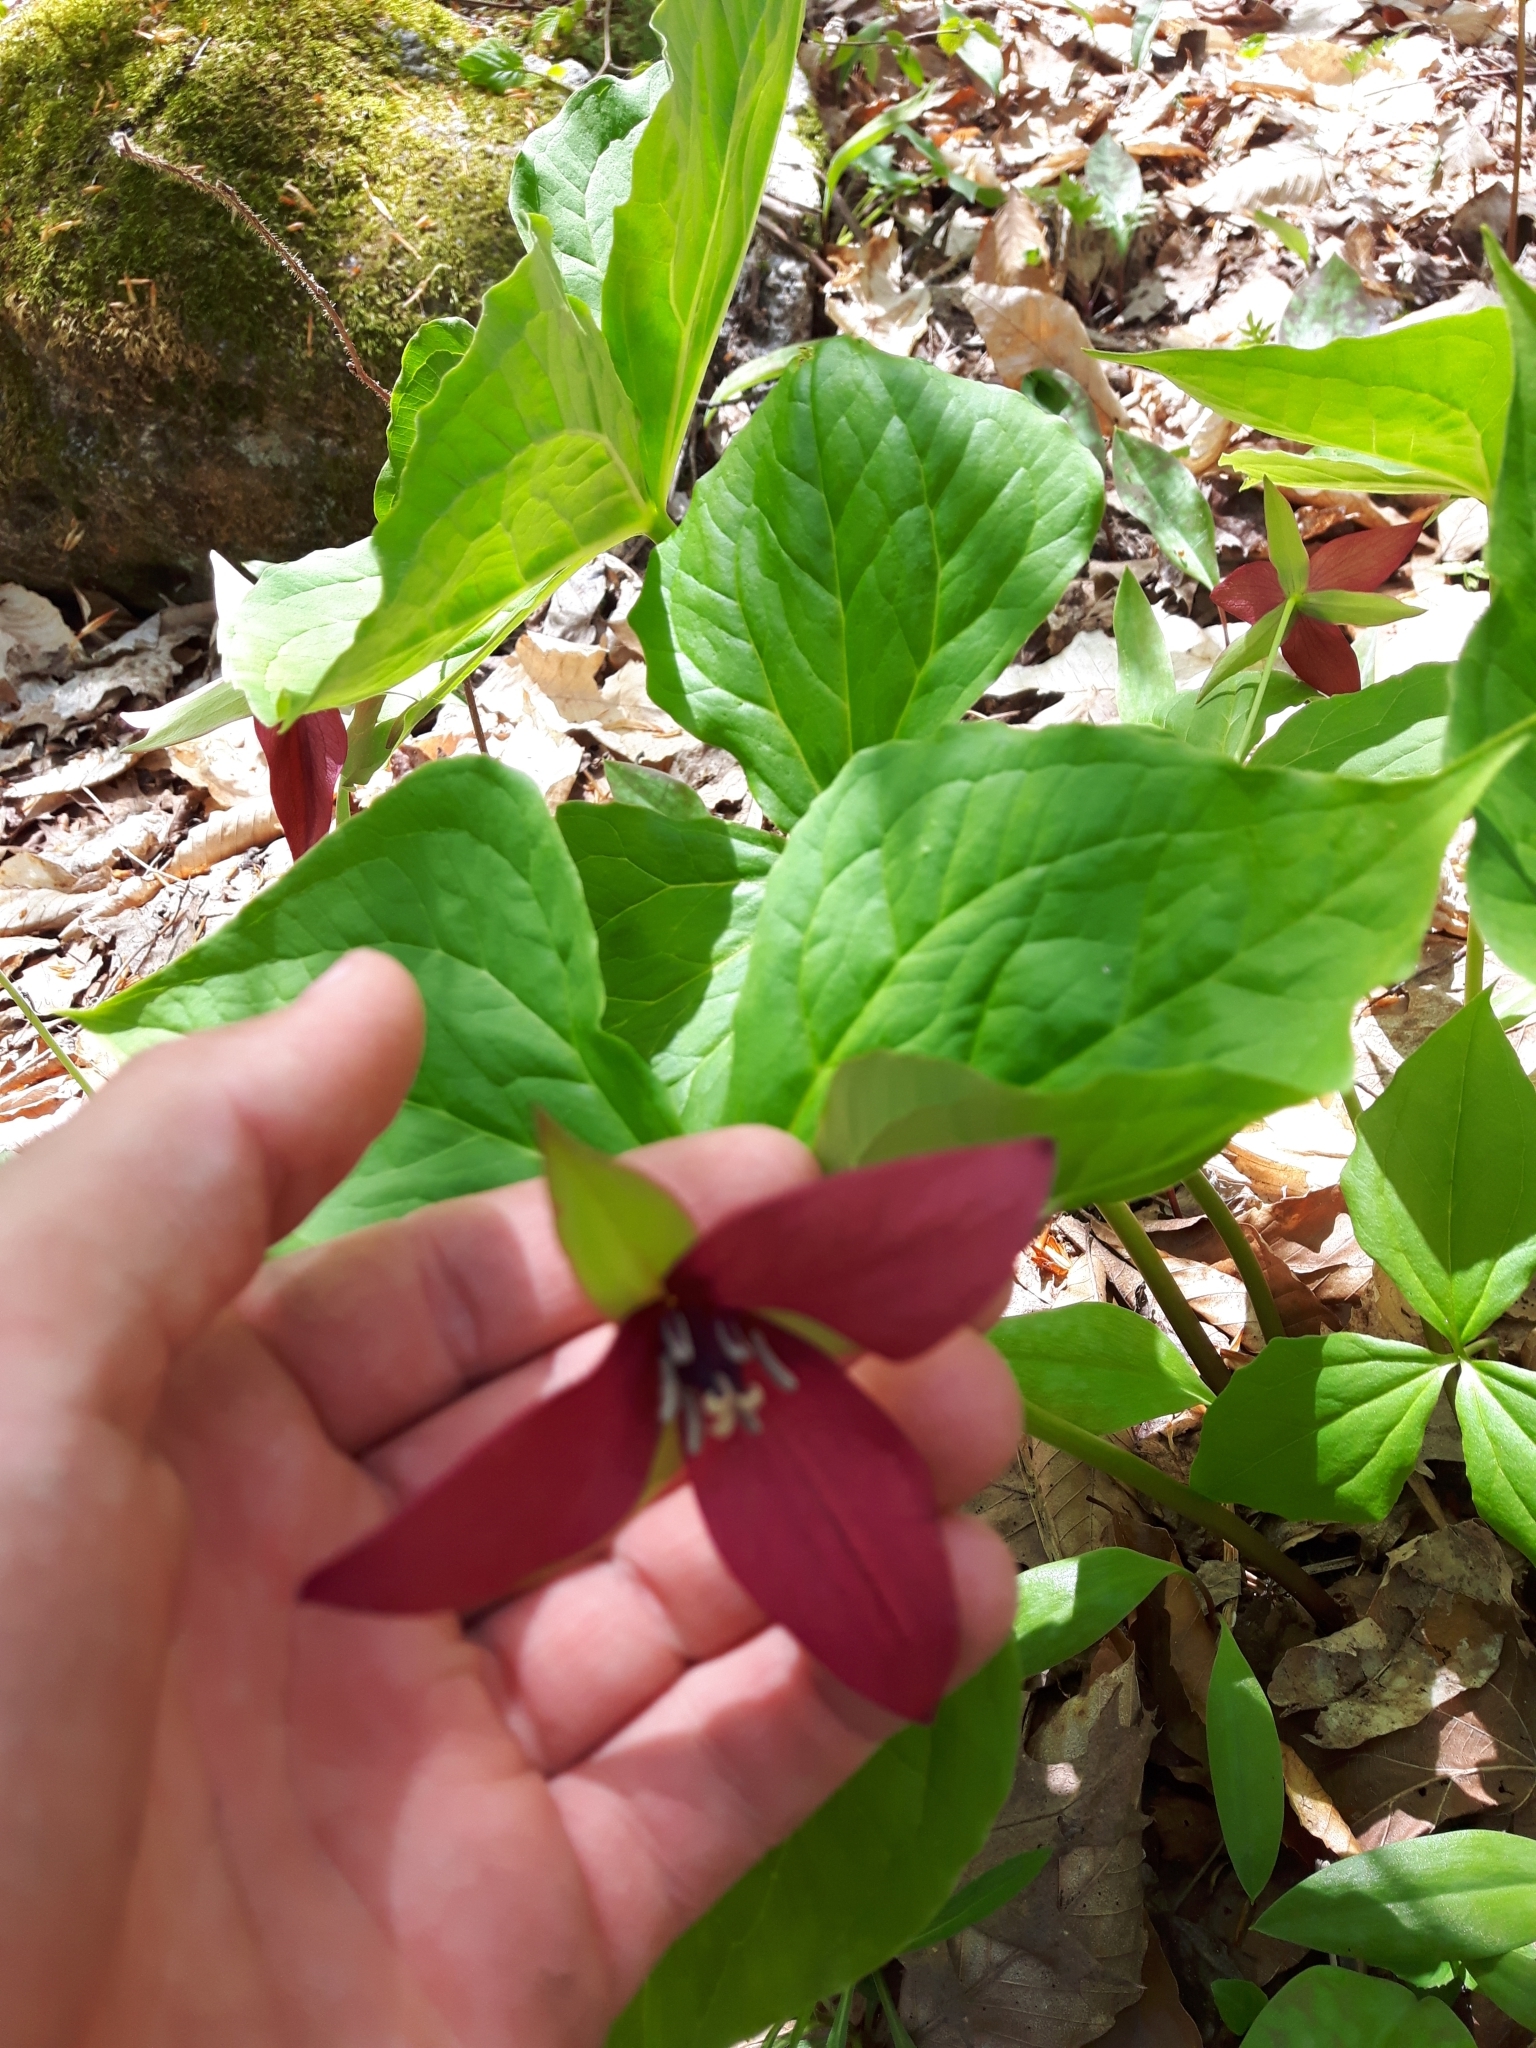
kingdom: Plantae
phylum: Tracheophyta
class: Liliopsida
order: Liliales
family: Melanthiaceae
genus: Trillium
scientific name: Trillium erectum
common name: Purple trillium
